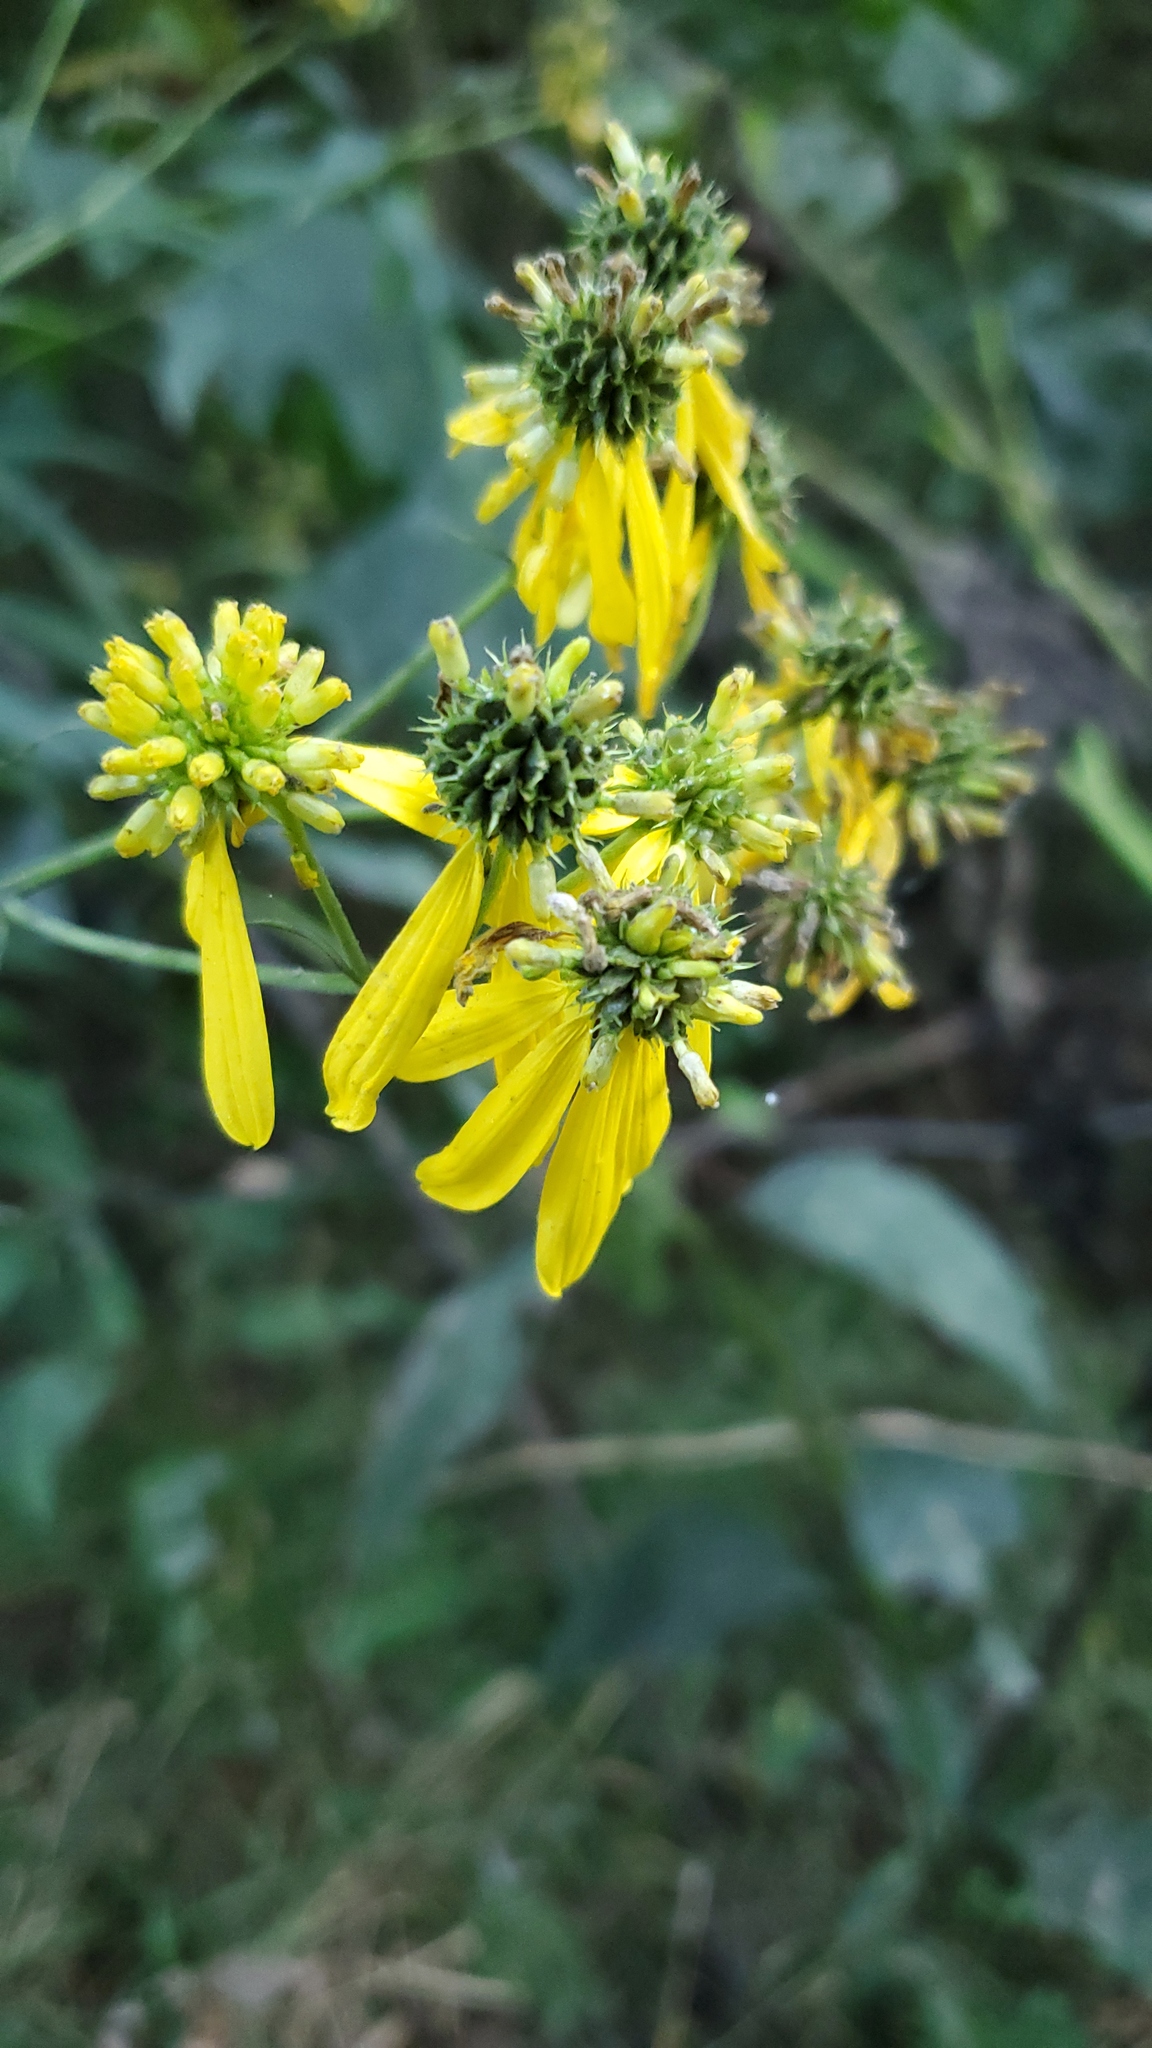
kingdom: Plantae
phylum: Tracheophyta
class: Magnoliopsida
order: Asterales
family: Asteraceae
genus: Verbesina
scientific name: Verbesina alternifolia
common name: Wingstem
